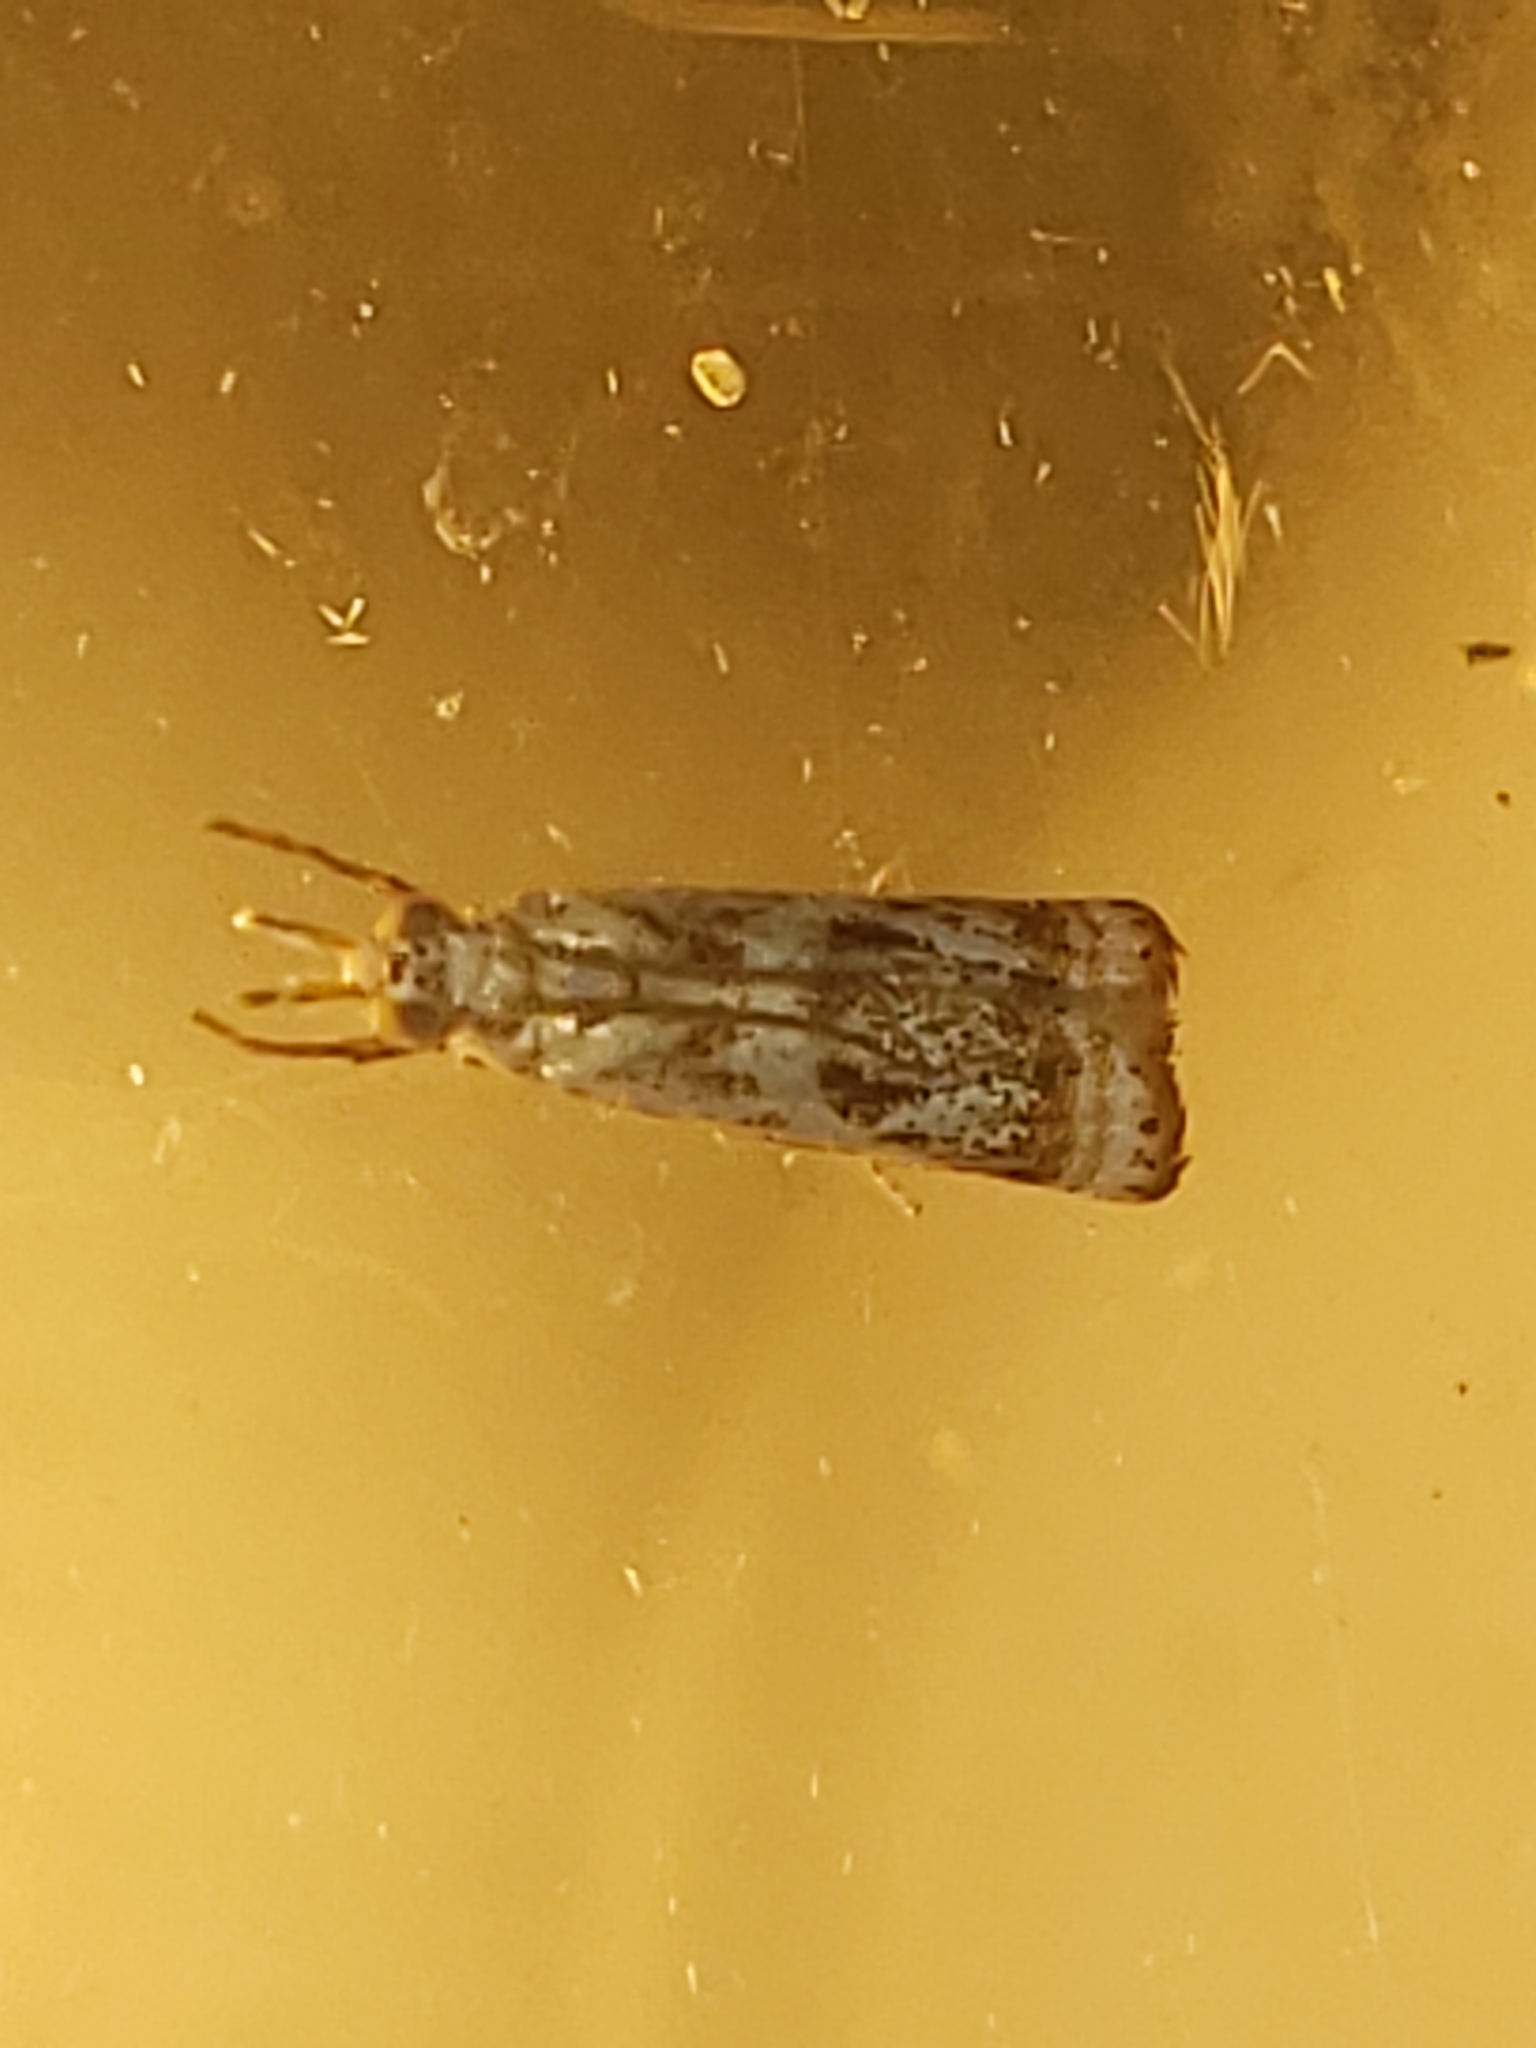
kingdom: Animalia
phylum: Arthropoda
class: Insecta
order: Lepidoptera
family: Crambidae
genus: Microcrambus
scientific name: Microcrambus elegans
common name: Elegant grass-veneer
